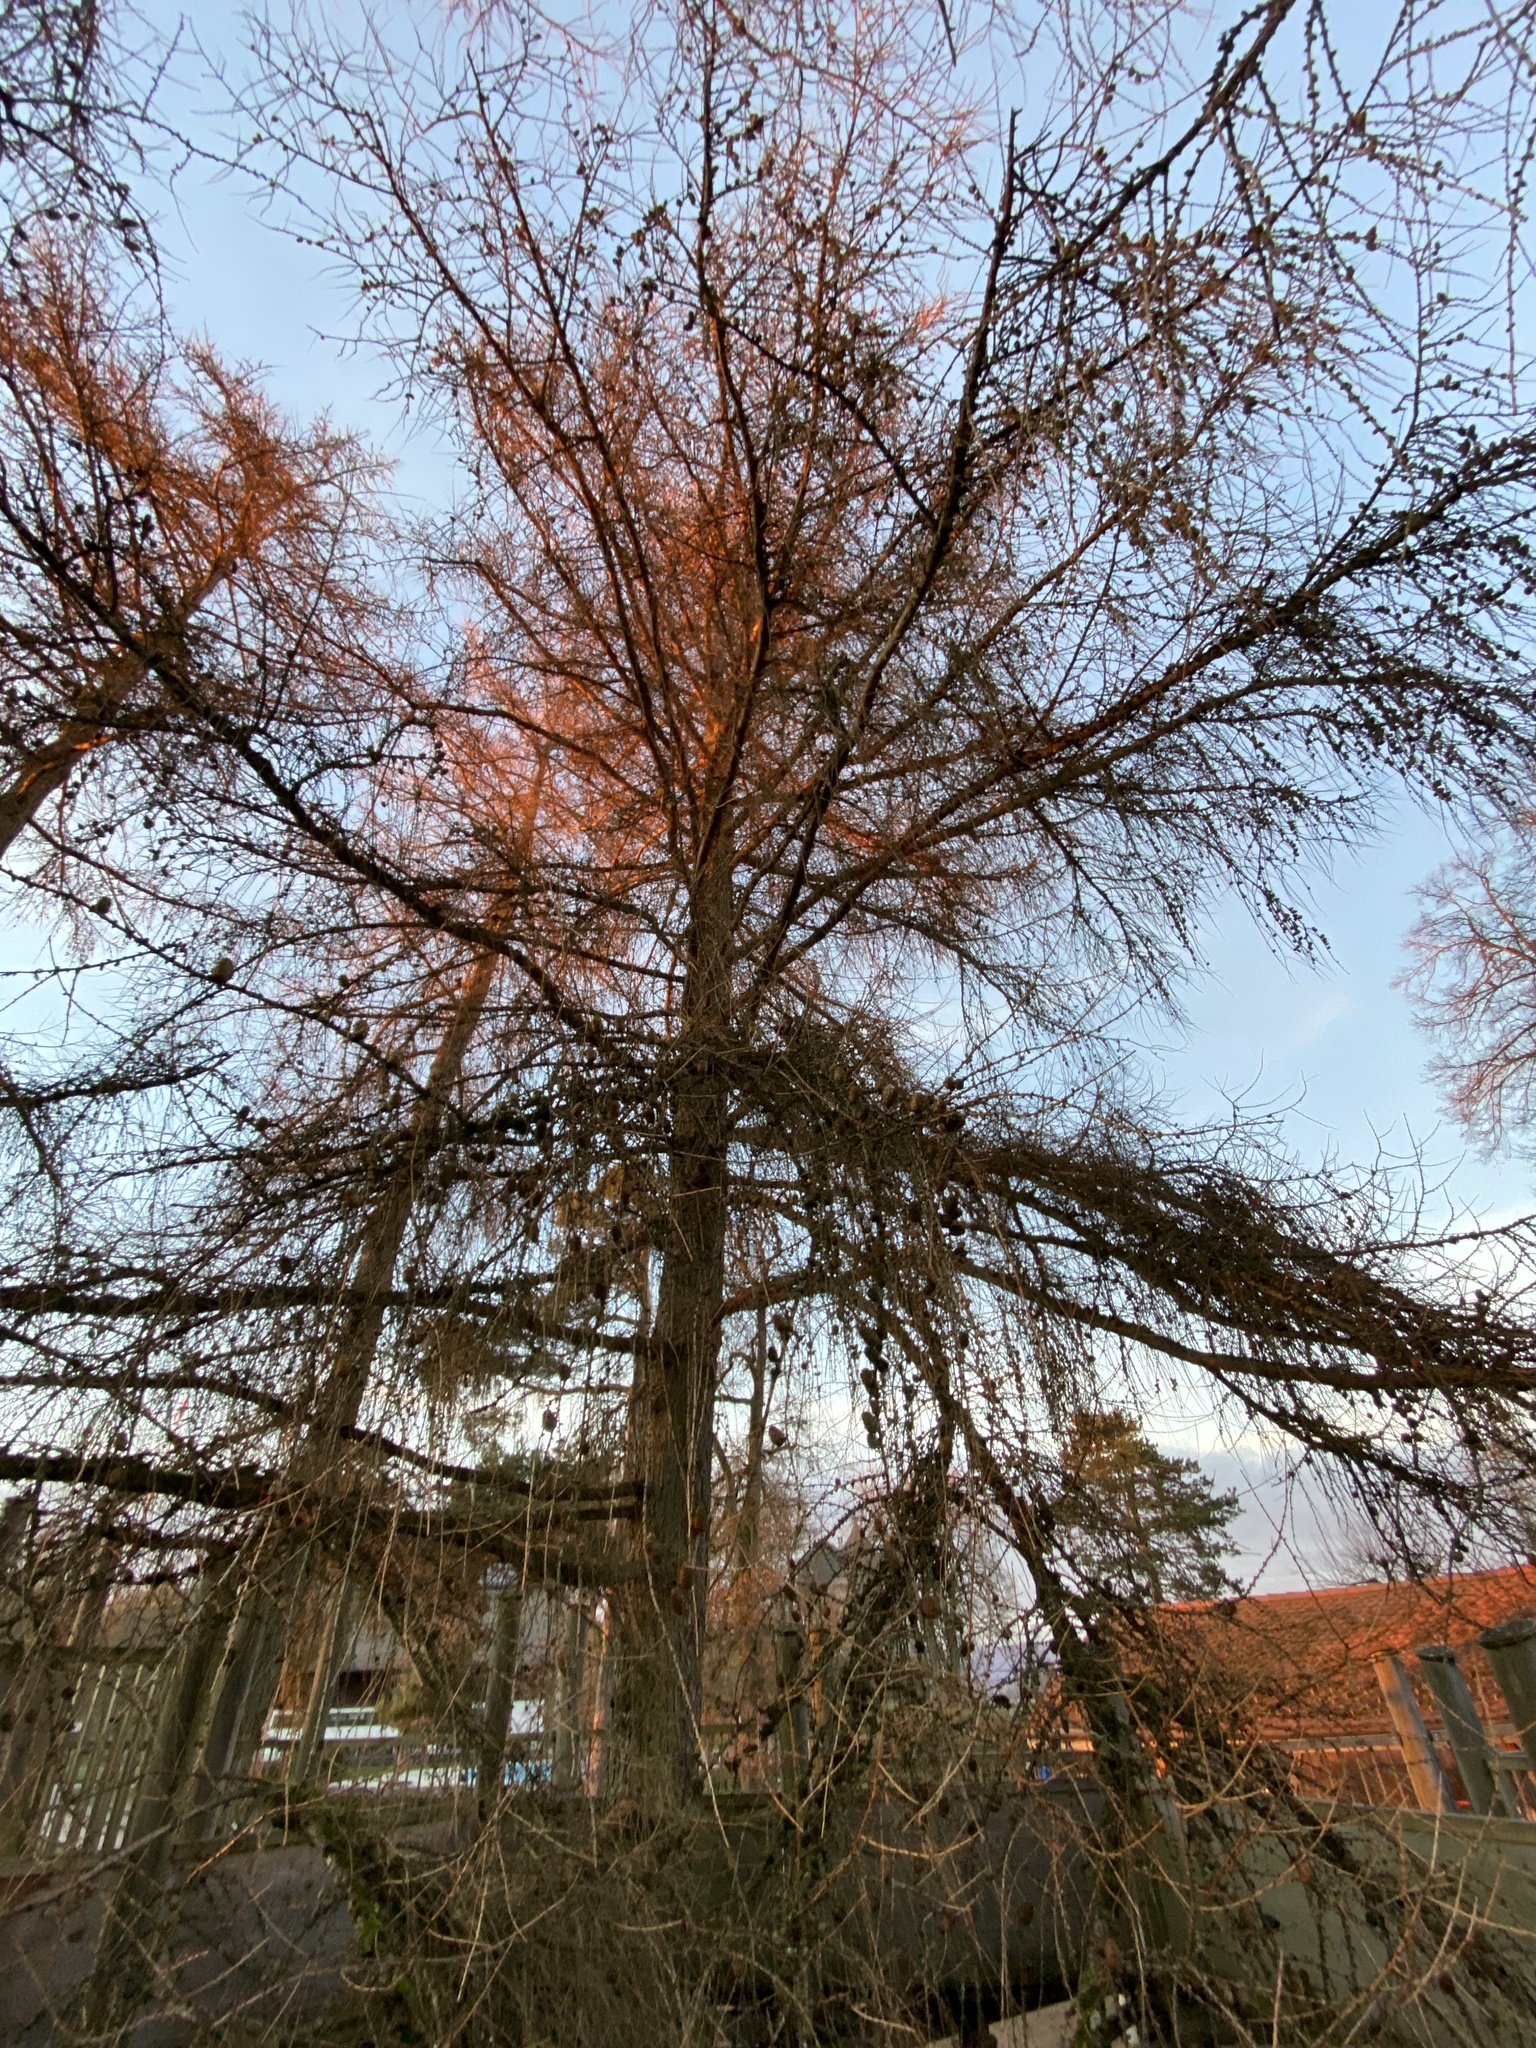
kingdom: Plantae
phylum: Tracheophyta
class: Pinopsida
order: Pinales
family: Pinaceae
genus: Larix
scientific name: Larix decidua
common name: European larch
